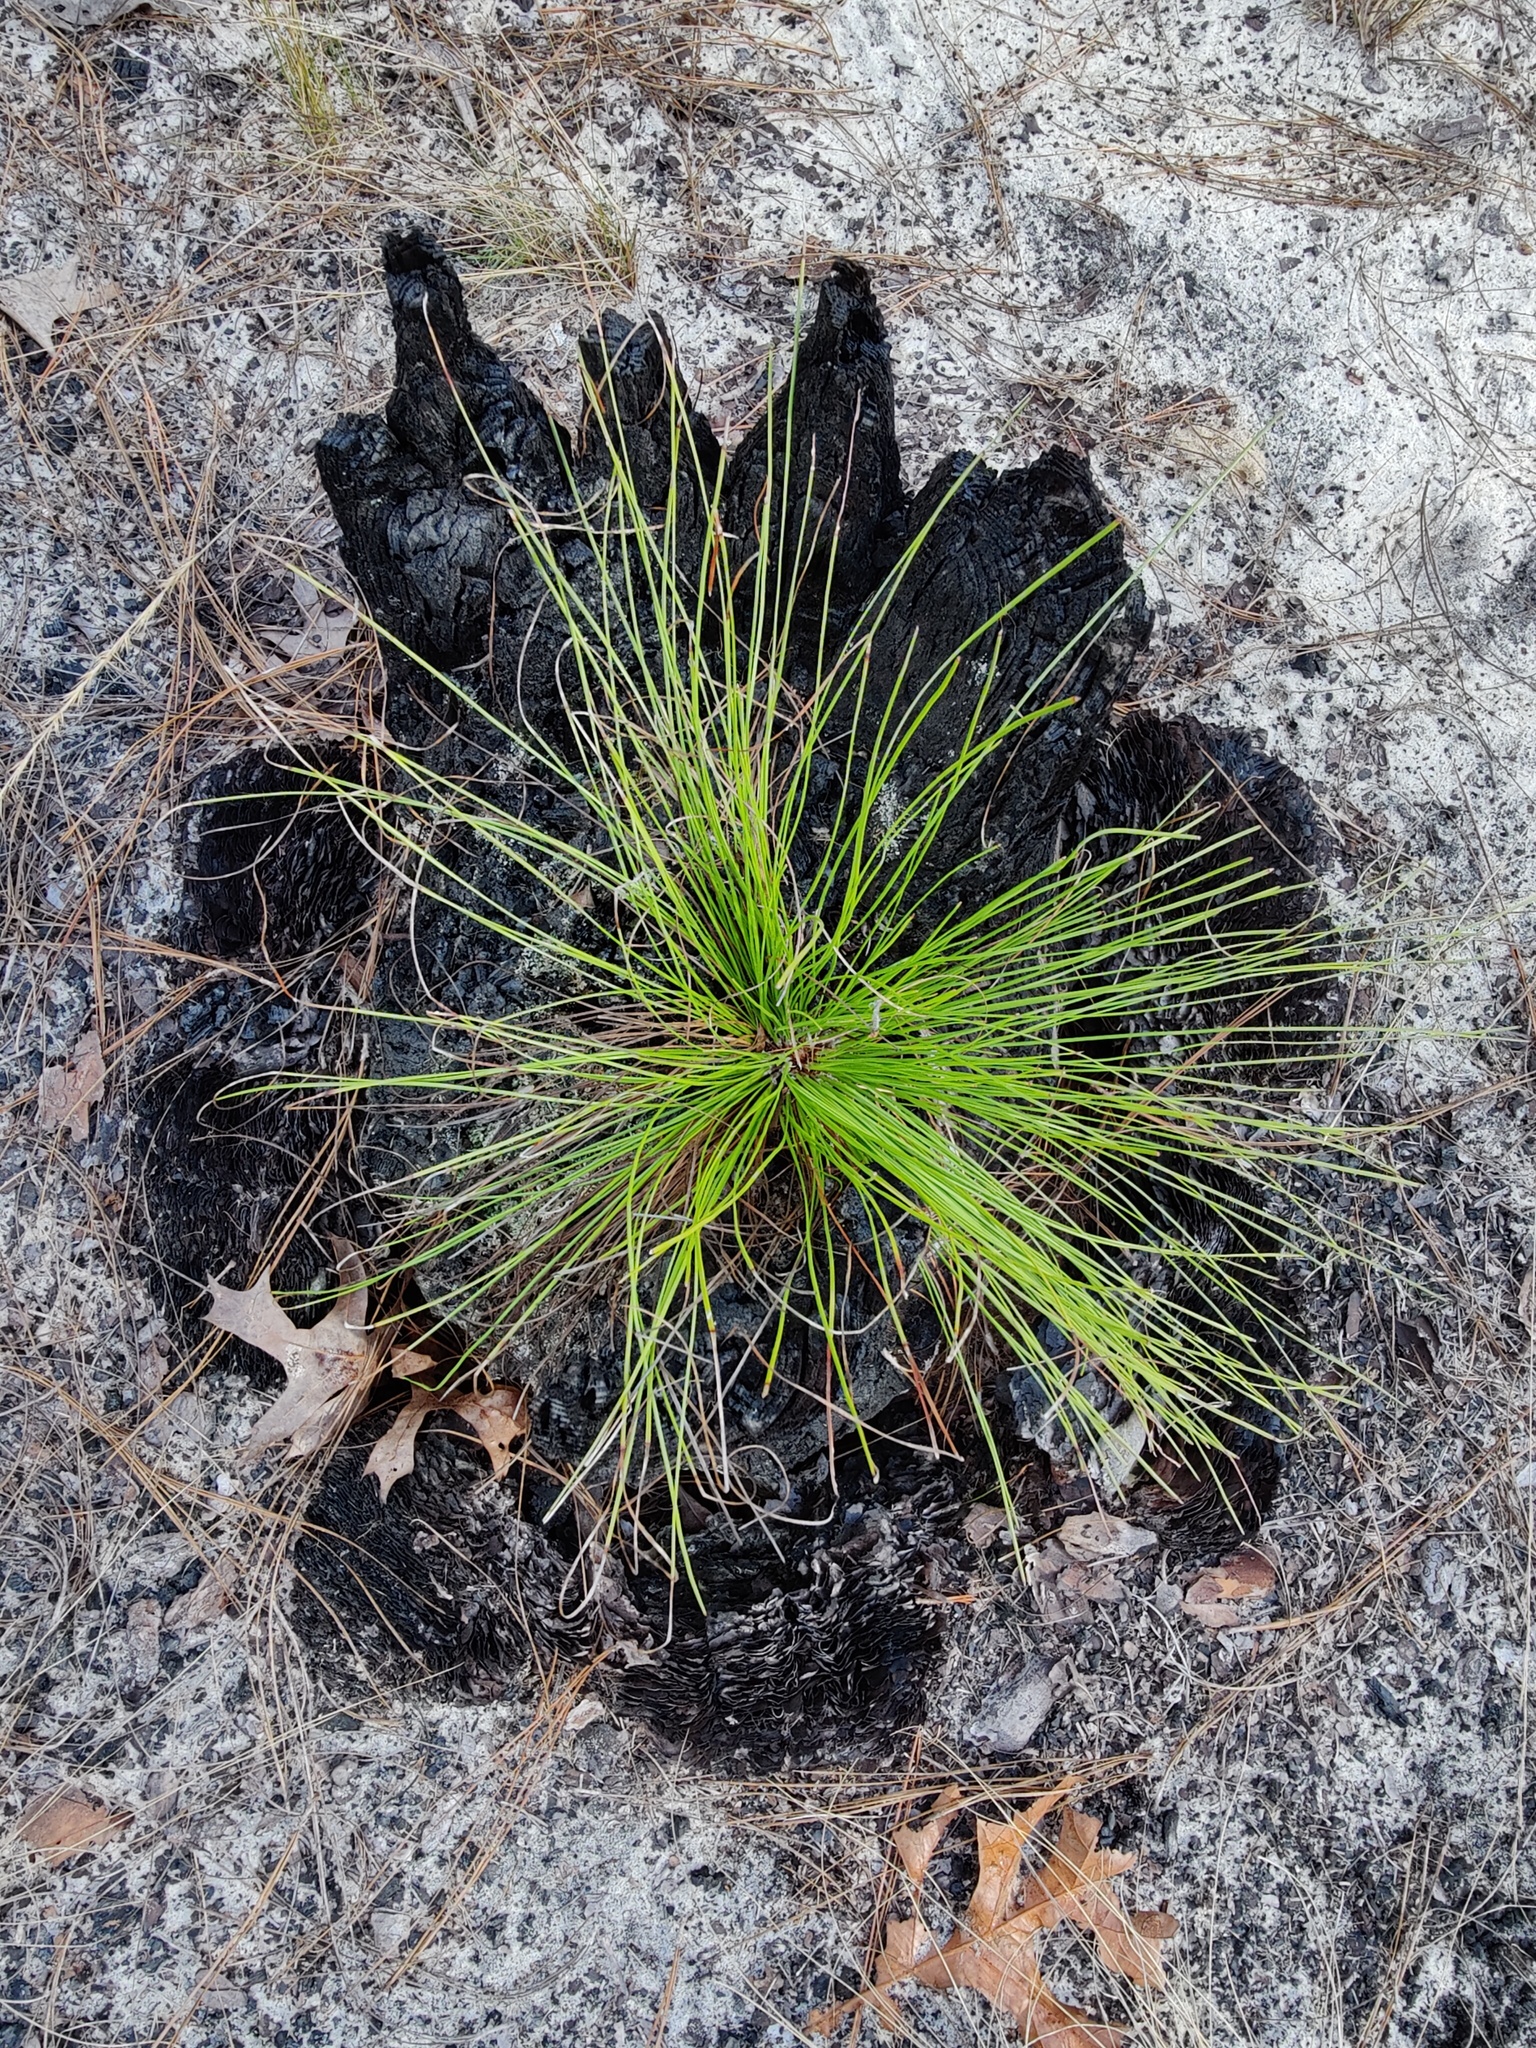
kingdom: Plantae
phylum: Tracheophyta
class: Pinopsida
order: Pinales
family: Pinaceae
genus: Pinus
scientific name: Pinus palustris
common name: Longleaf pine
